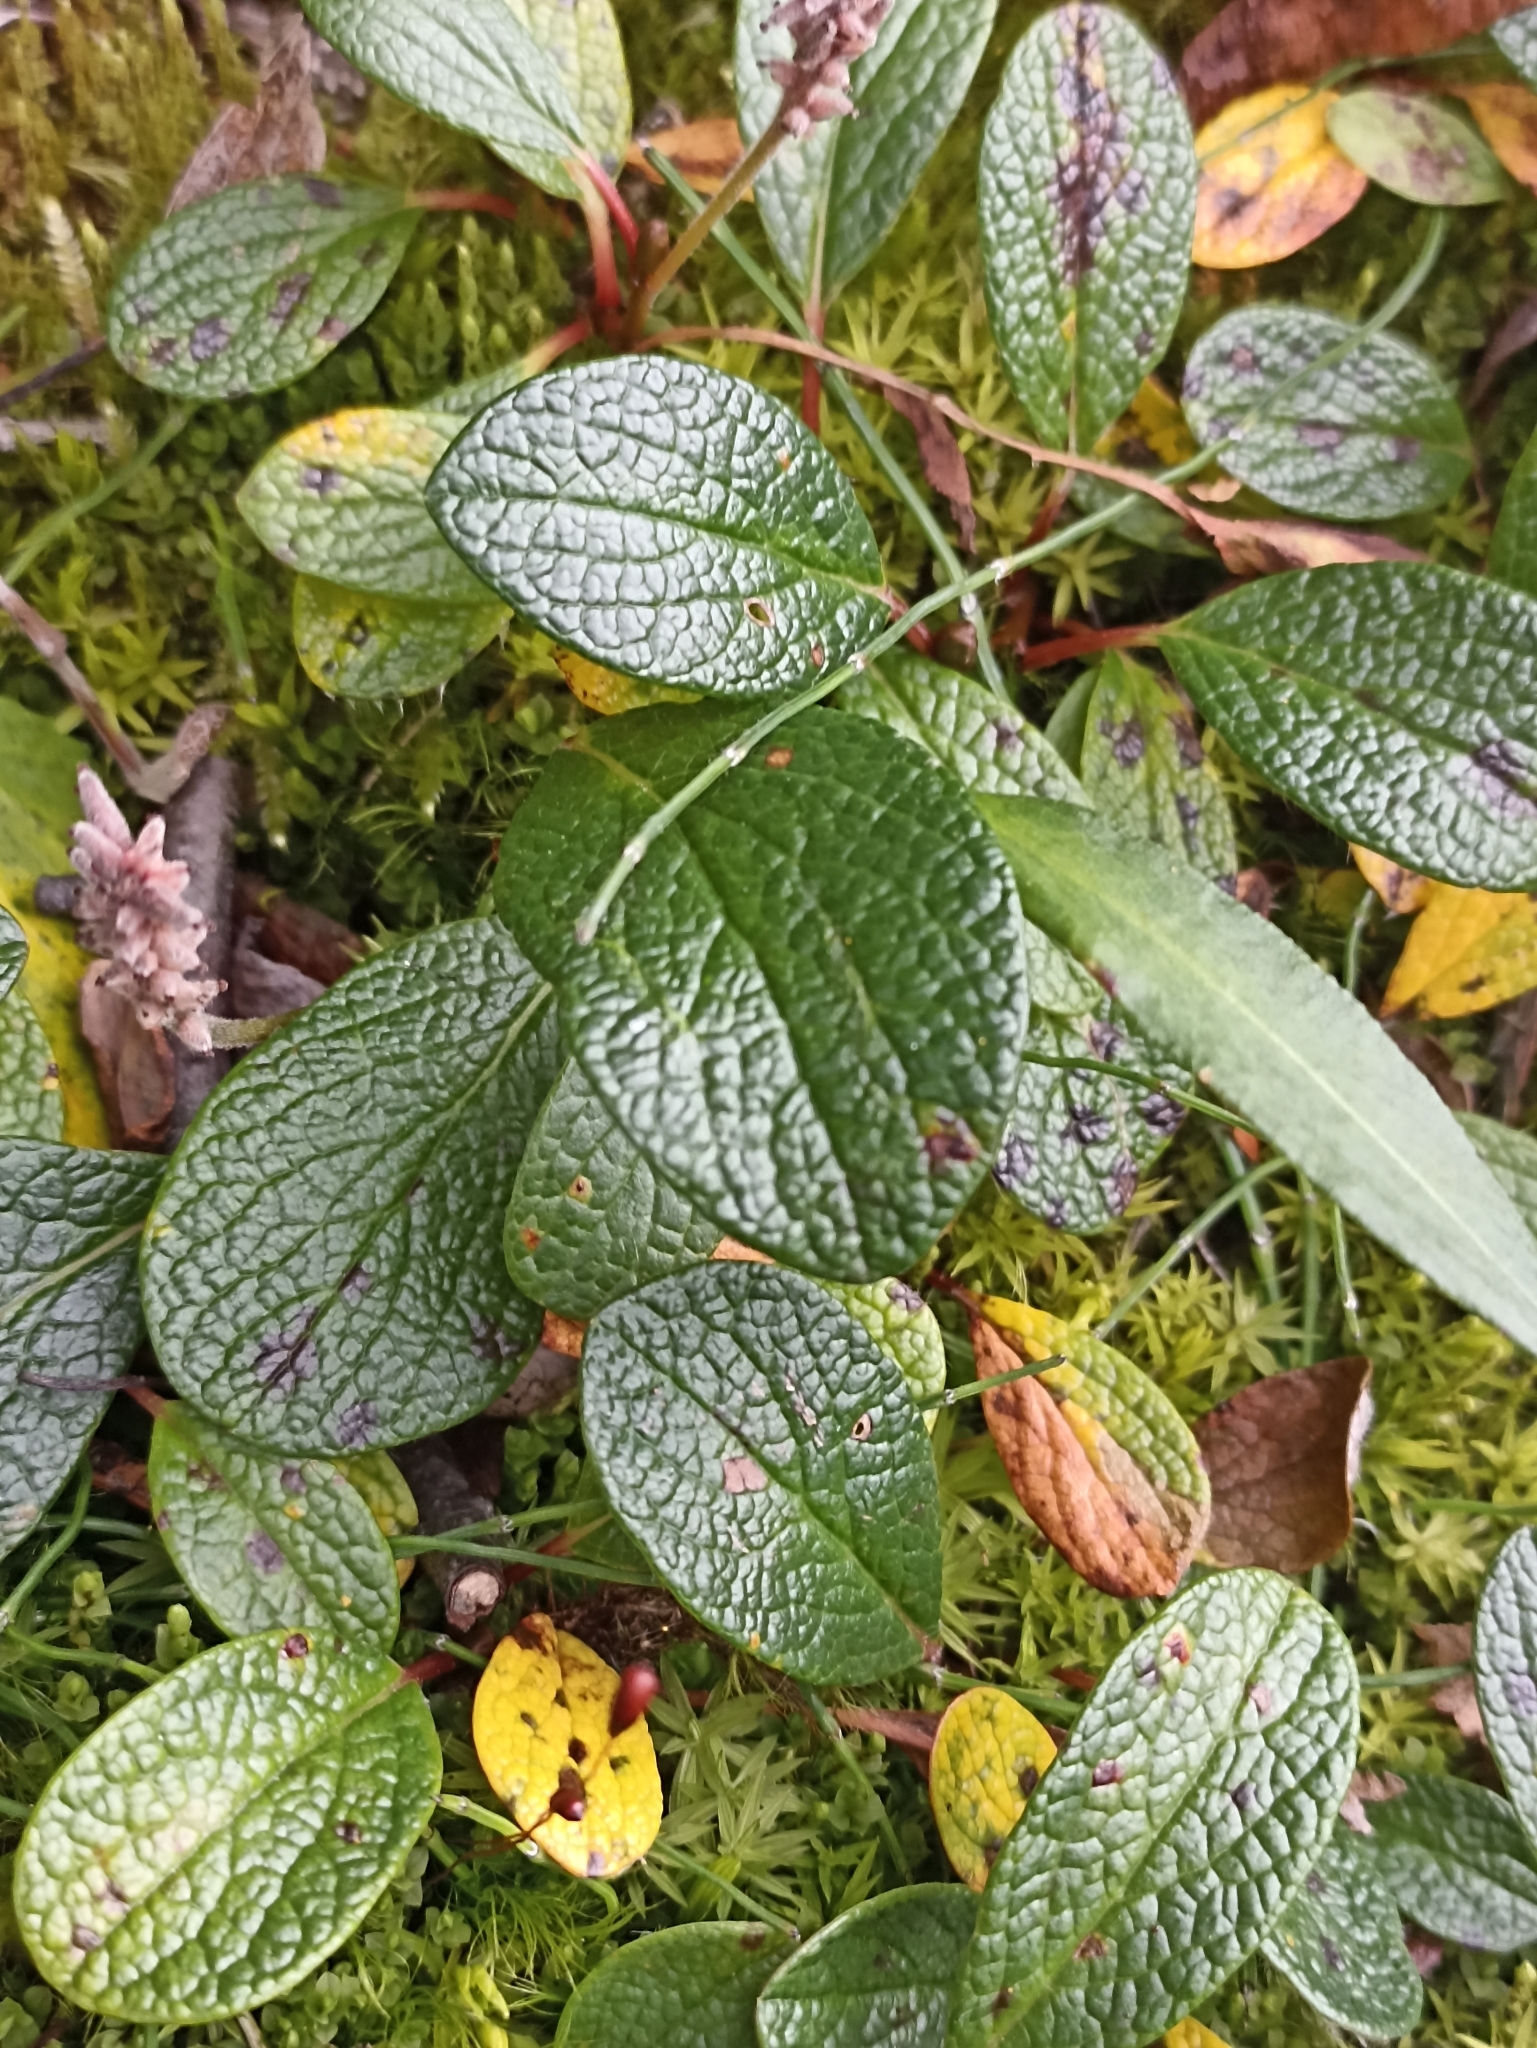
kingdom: Plantae
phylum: Tracheophyta
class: Magnoliopsida
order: Malpighiales
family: Salicaceae
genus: Salix
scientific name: Salix reticulata
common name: Net-leaved willow
